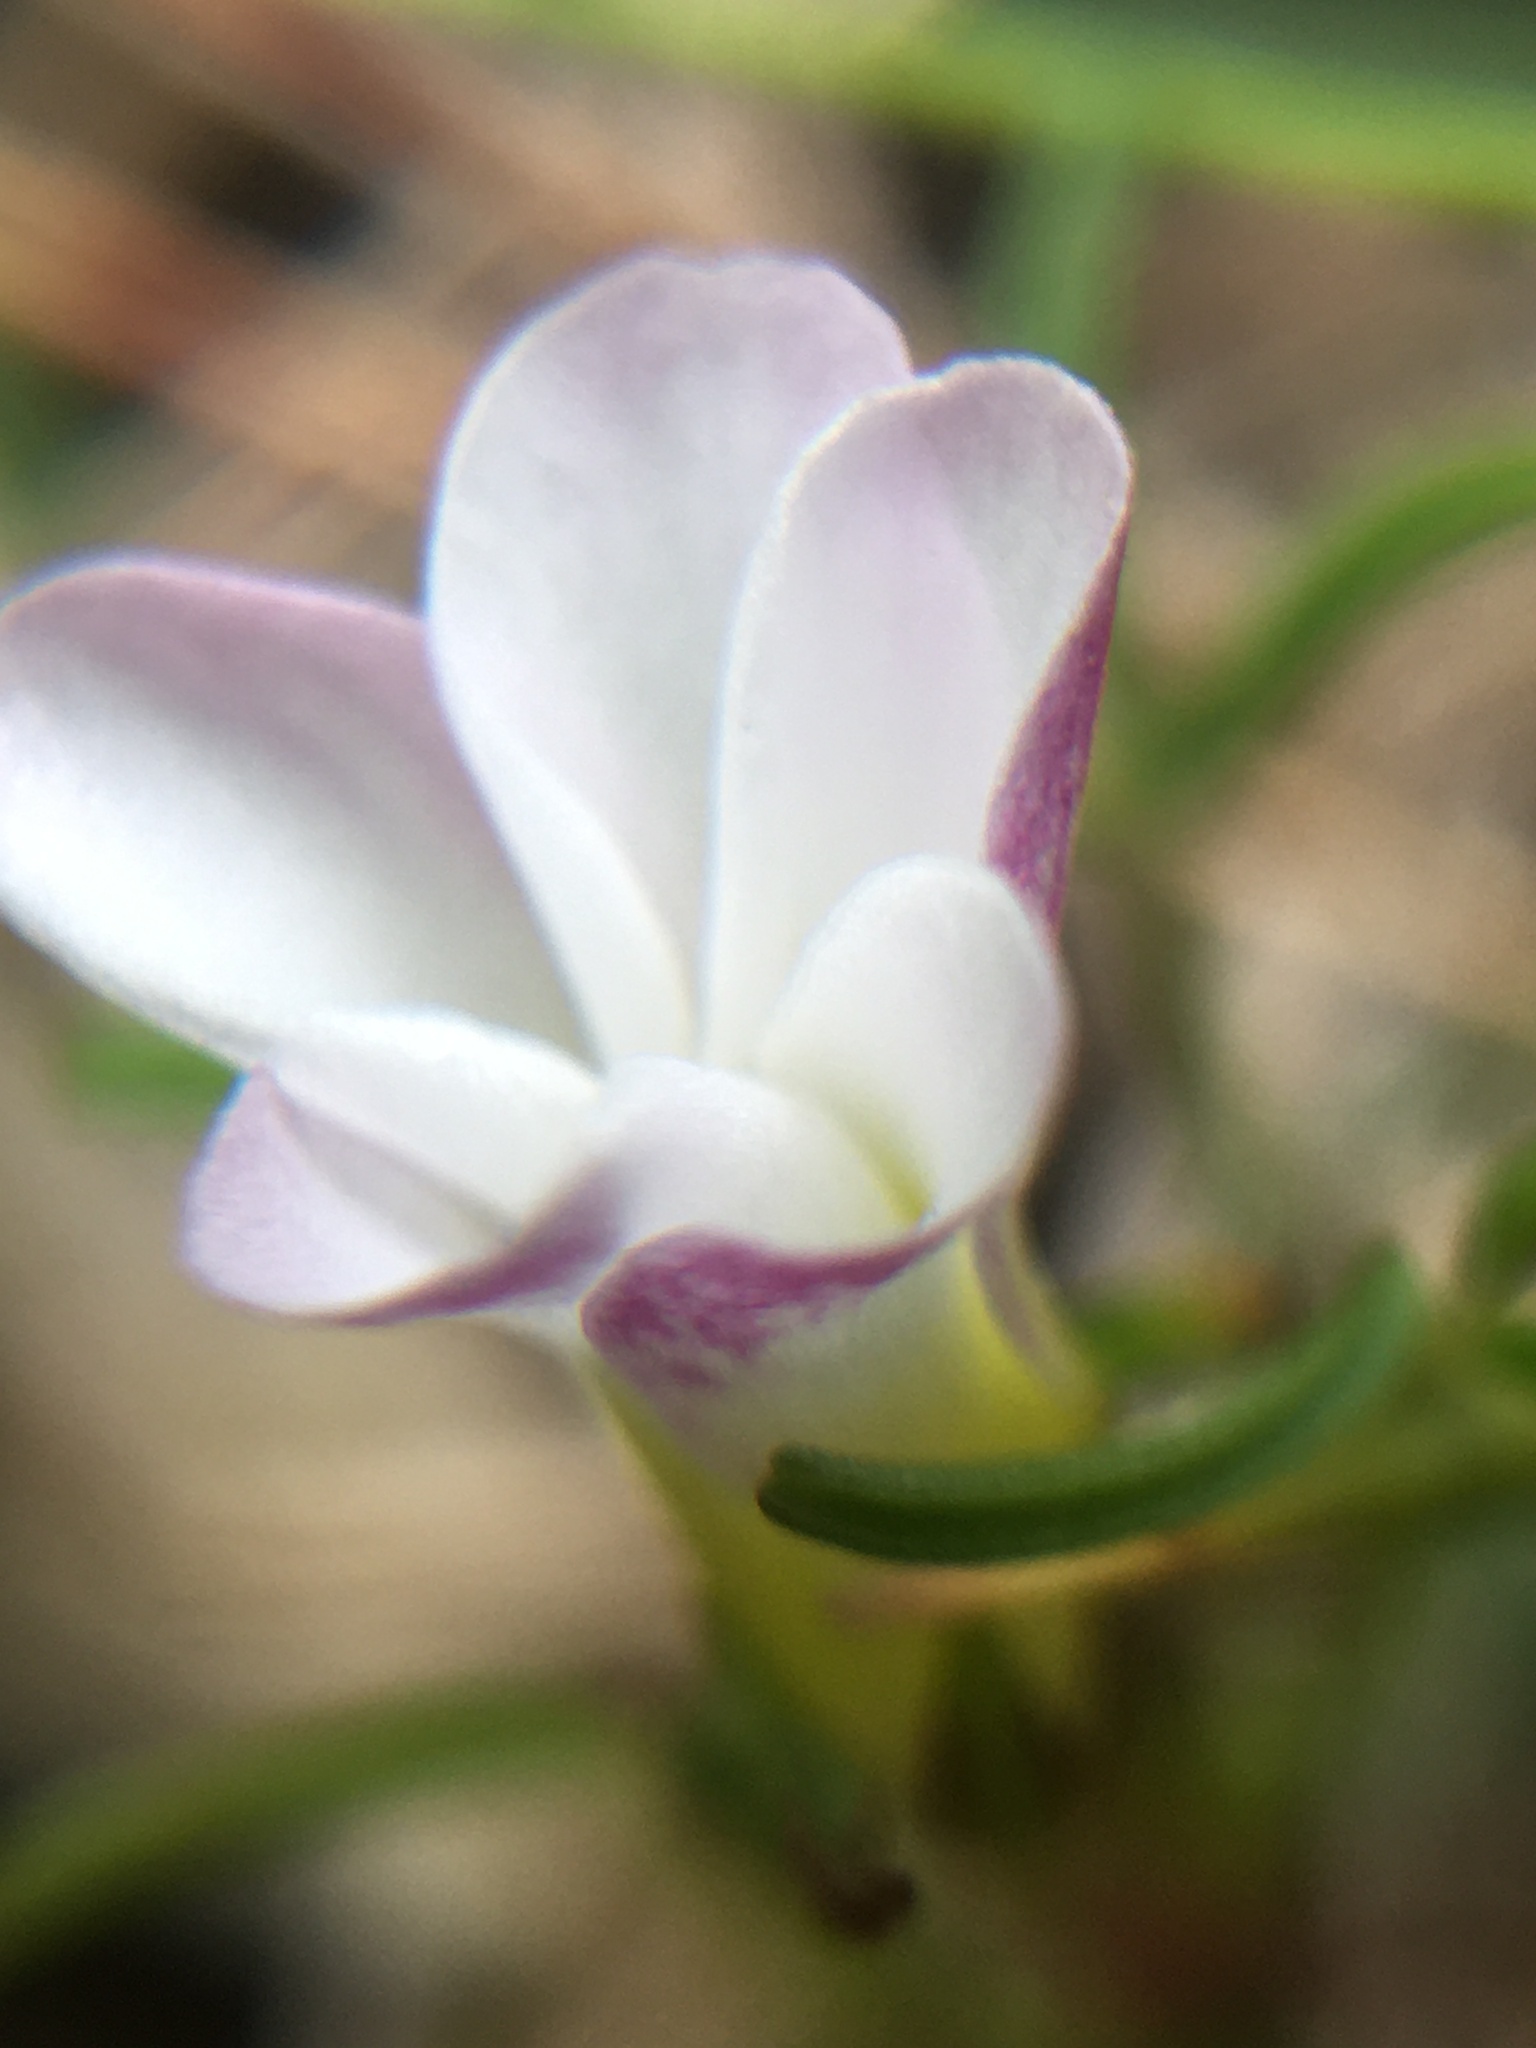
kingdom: Plantae
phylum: Tracheophyta
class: Magnoliopsida
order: Oxalidales
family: Oxalidaceae
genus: Oxalis
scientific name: Oxalis pusilla
